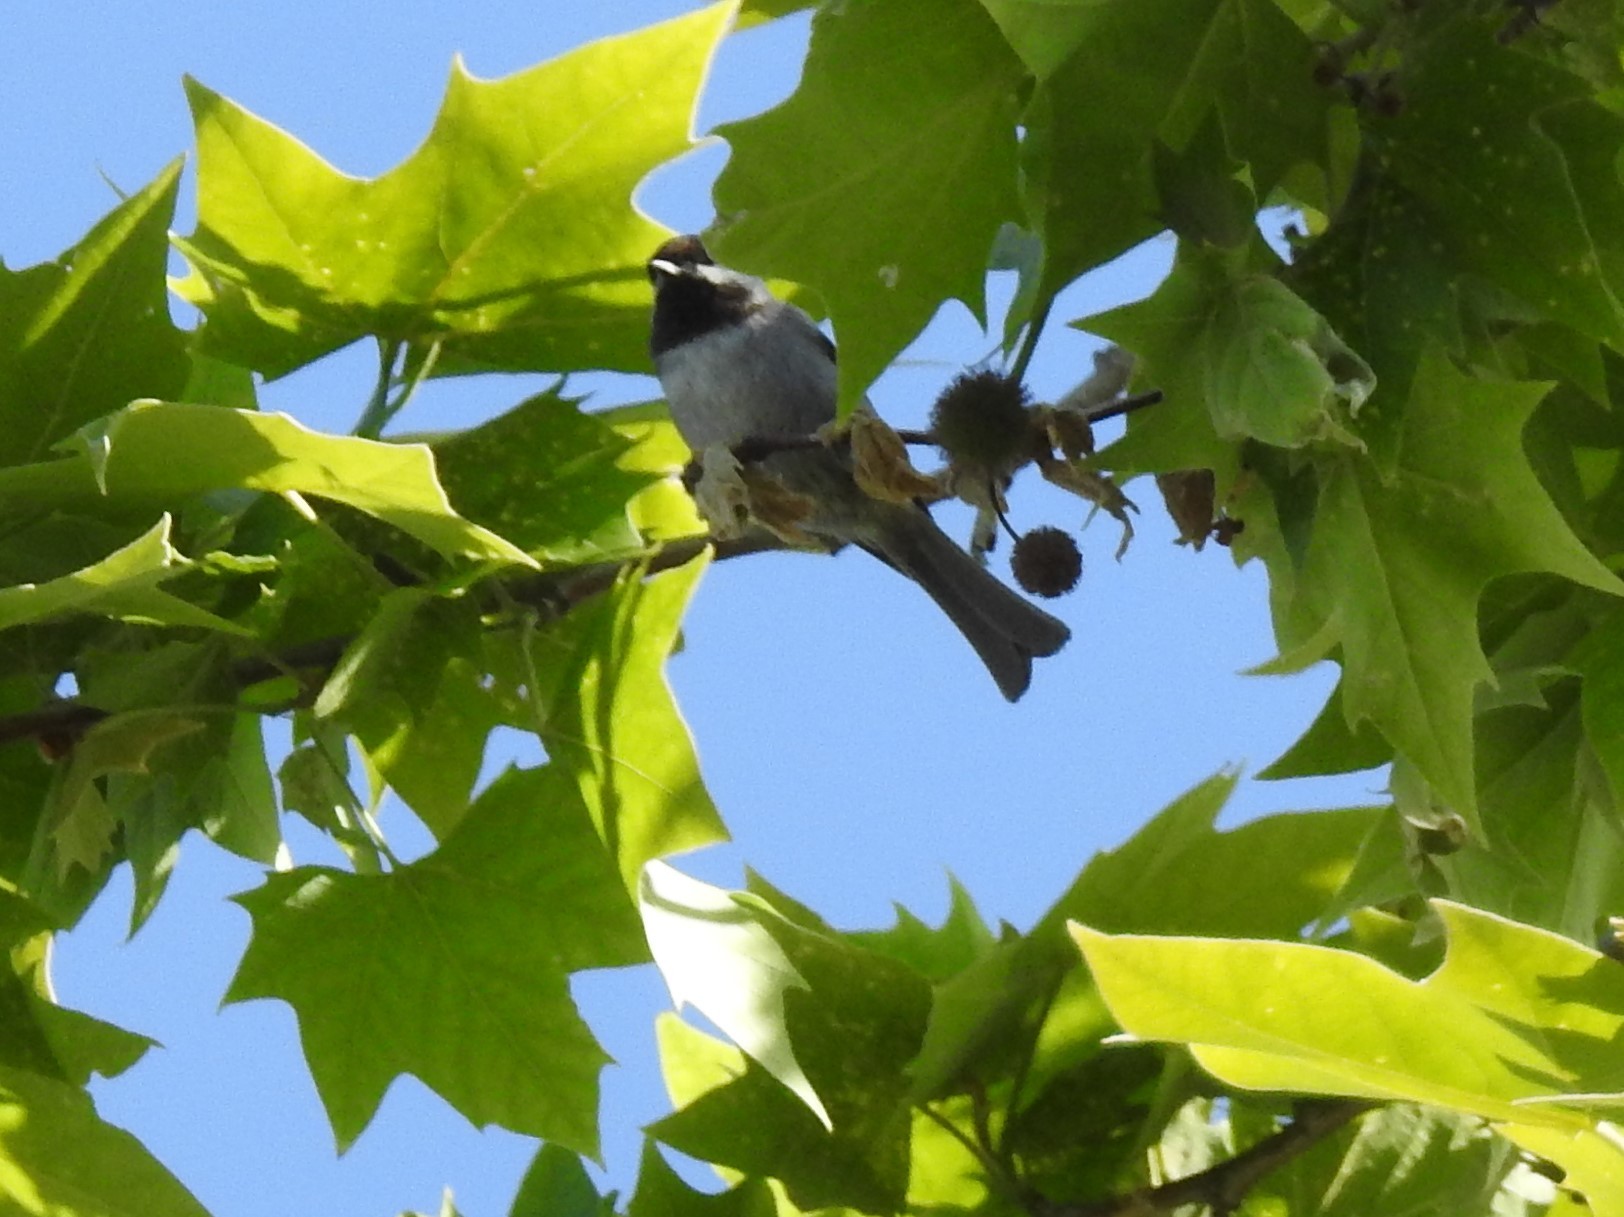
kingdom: Animalia
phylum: Chordata
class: Aves
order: Passeriformes
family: Paridae
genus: Poecile
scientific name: Poecile rufescens
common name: Chestnut-backed chickadee
